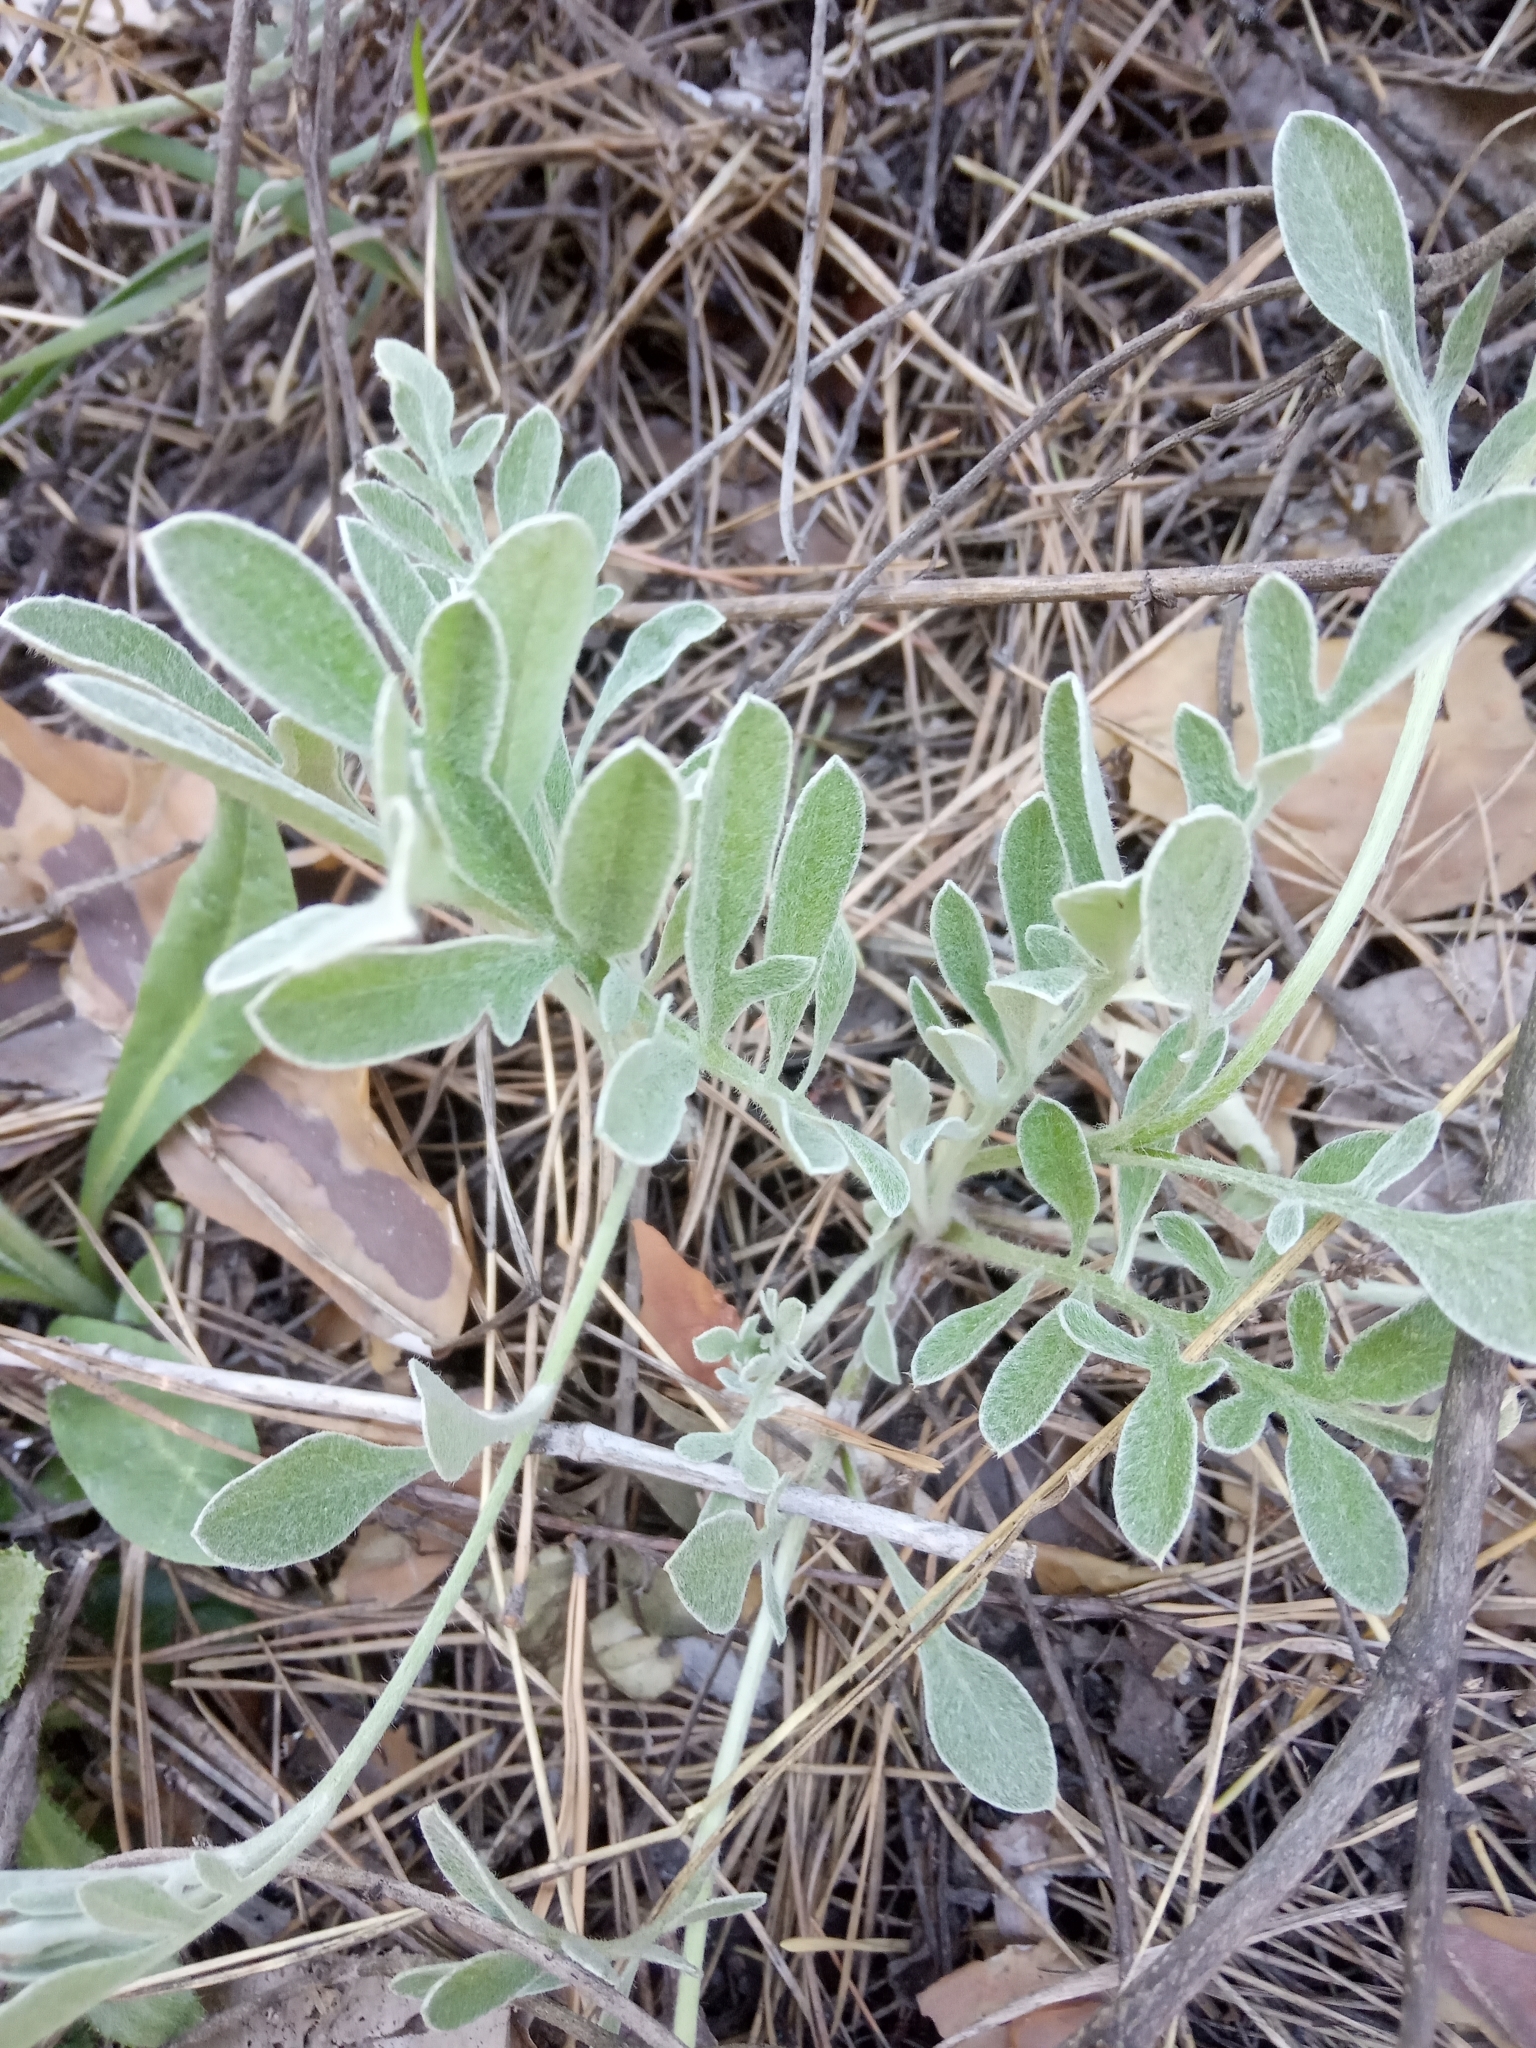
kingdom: Plantae
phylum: Tracheophyta
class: Magnoliopsida
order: Asterales
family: Asteraceae
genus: Psephellus
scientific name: Psephellus sumensis
